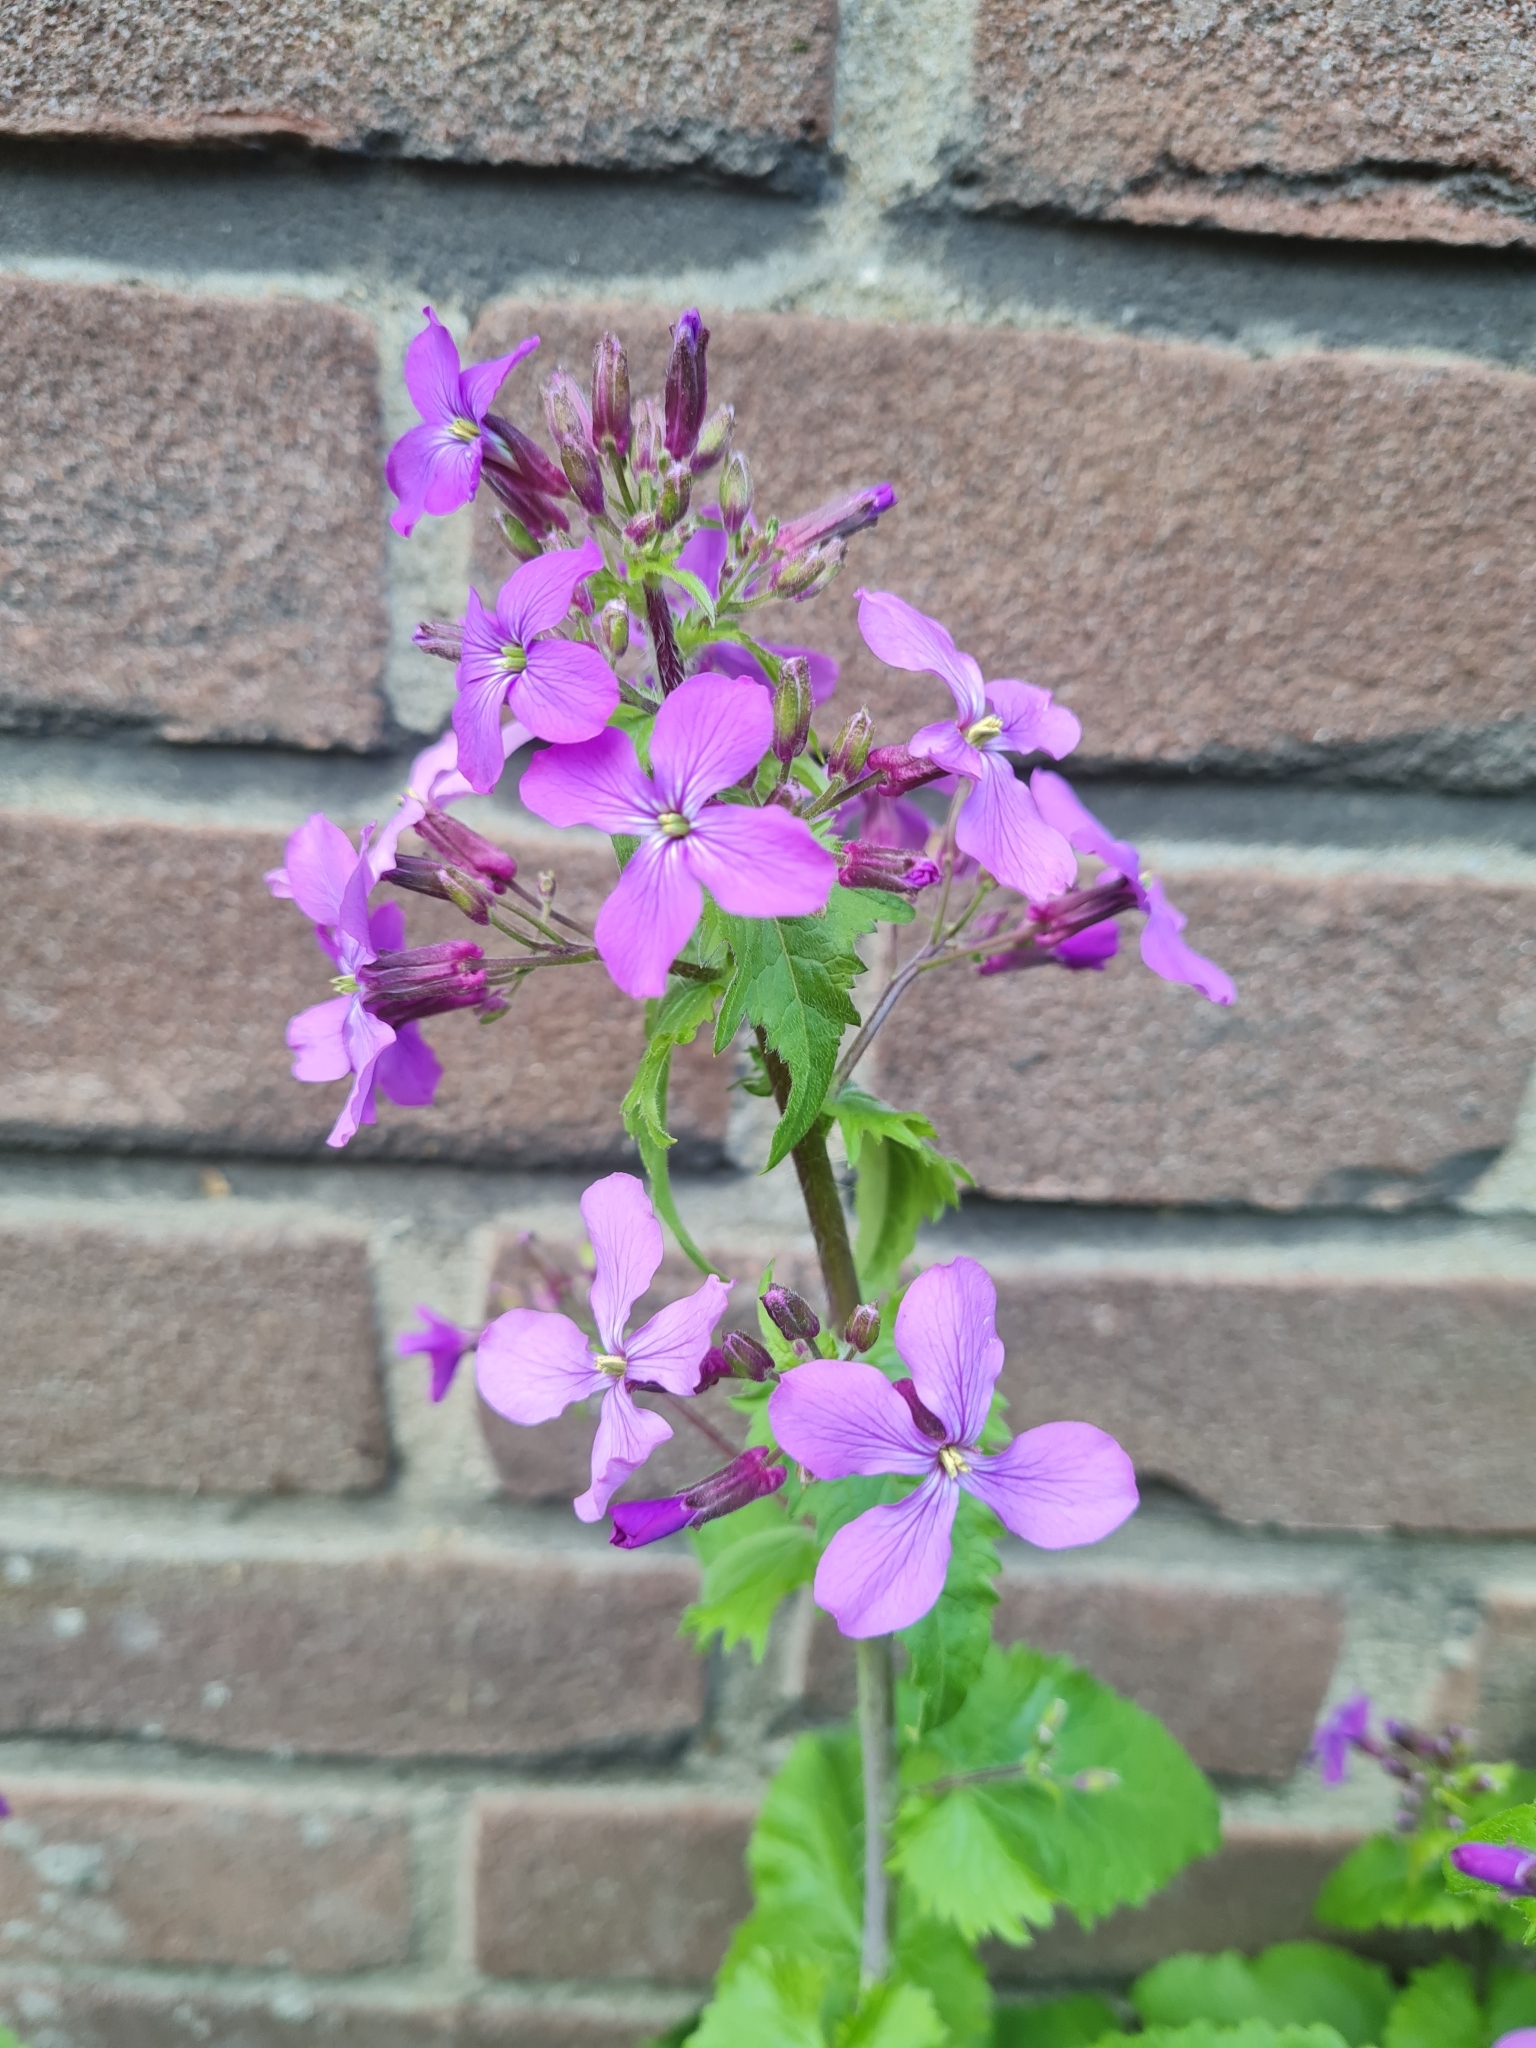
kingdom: Plantae
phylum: Tracheophyta
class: Magnoliopsida
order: Brassicales
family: Brassicaceae
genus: Lunaria
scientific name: Lunaria annua
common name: Honesty
